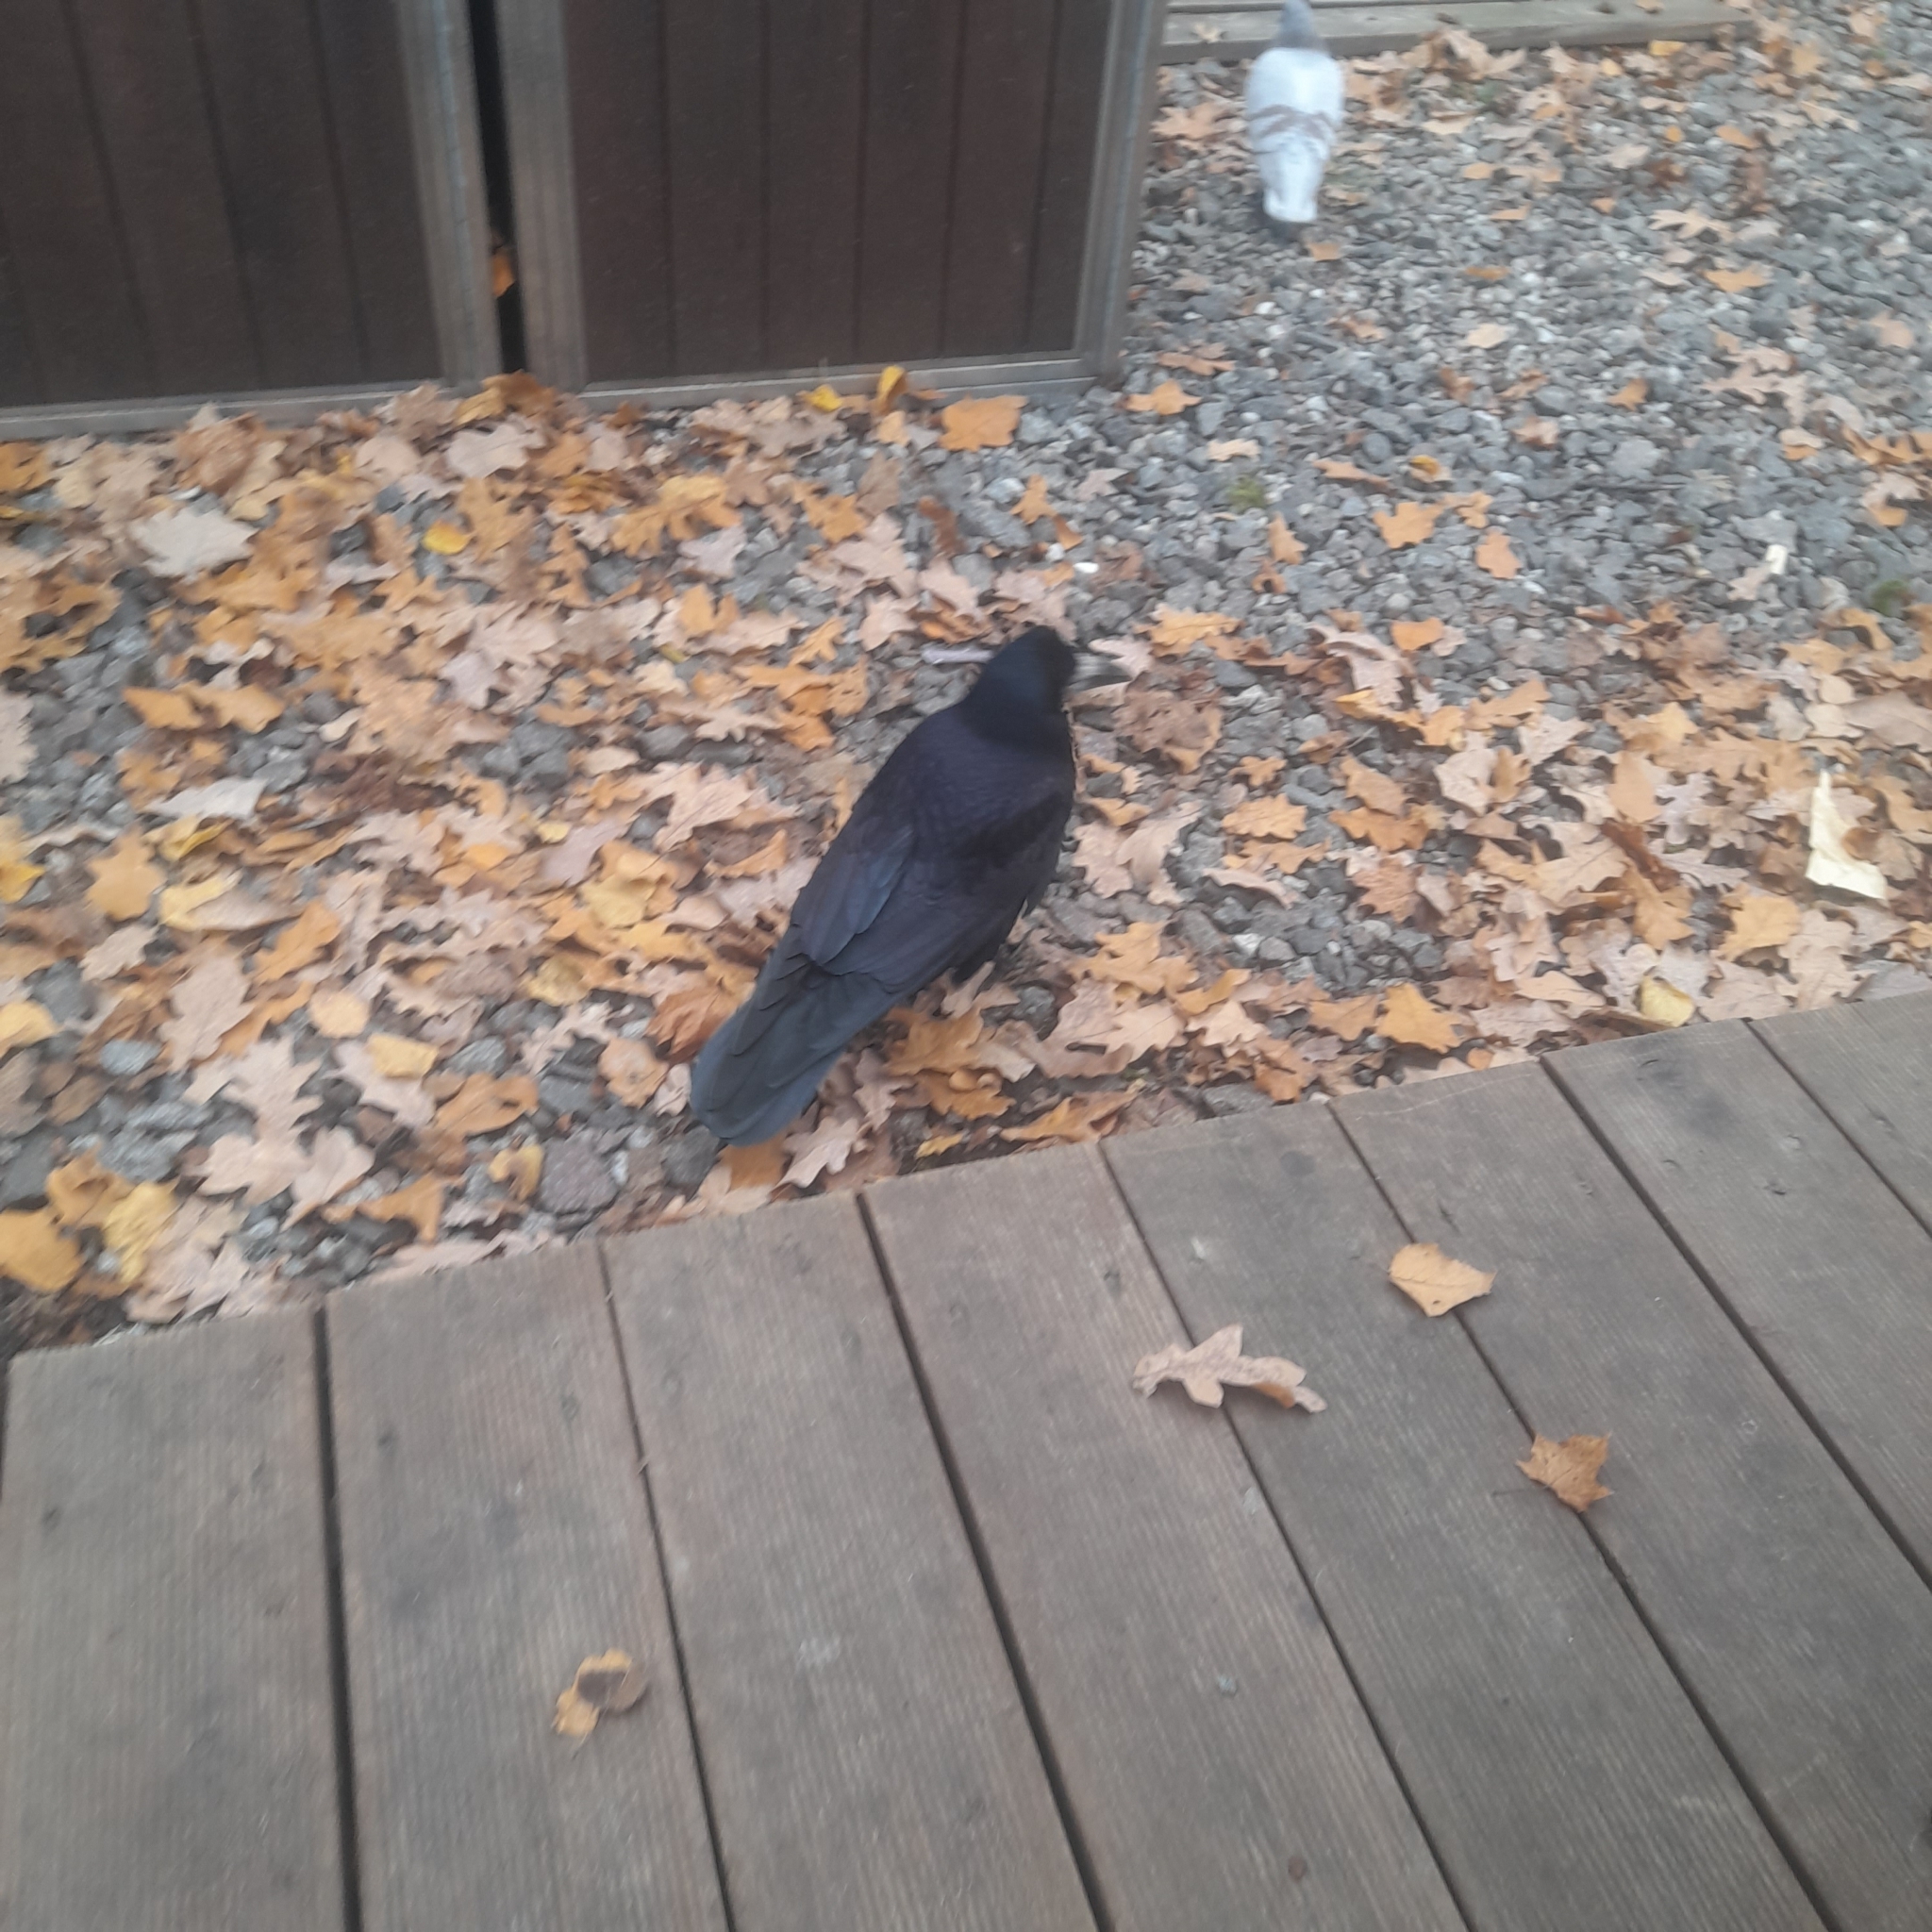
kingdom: Animalia
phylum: Chordata
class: Aves
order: Passeriformes
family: Corvidae
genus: Corvus
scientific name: Corvus frugilegus
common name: Rook
